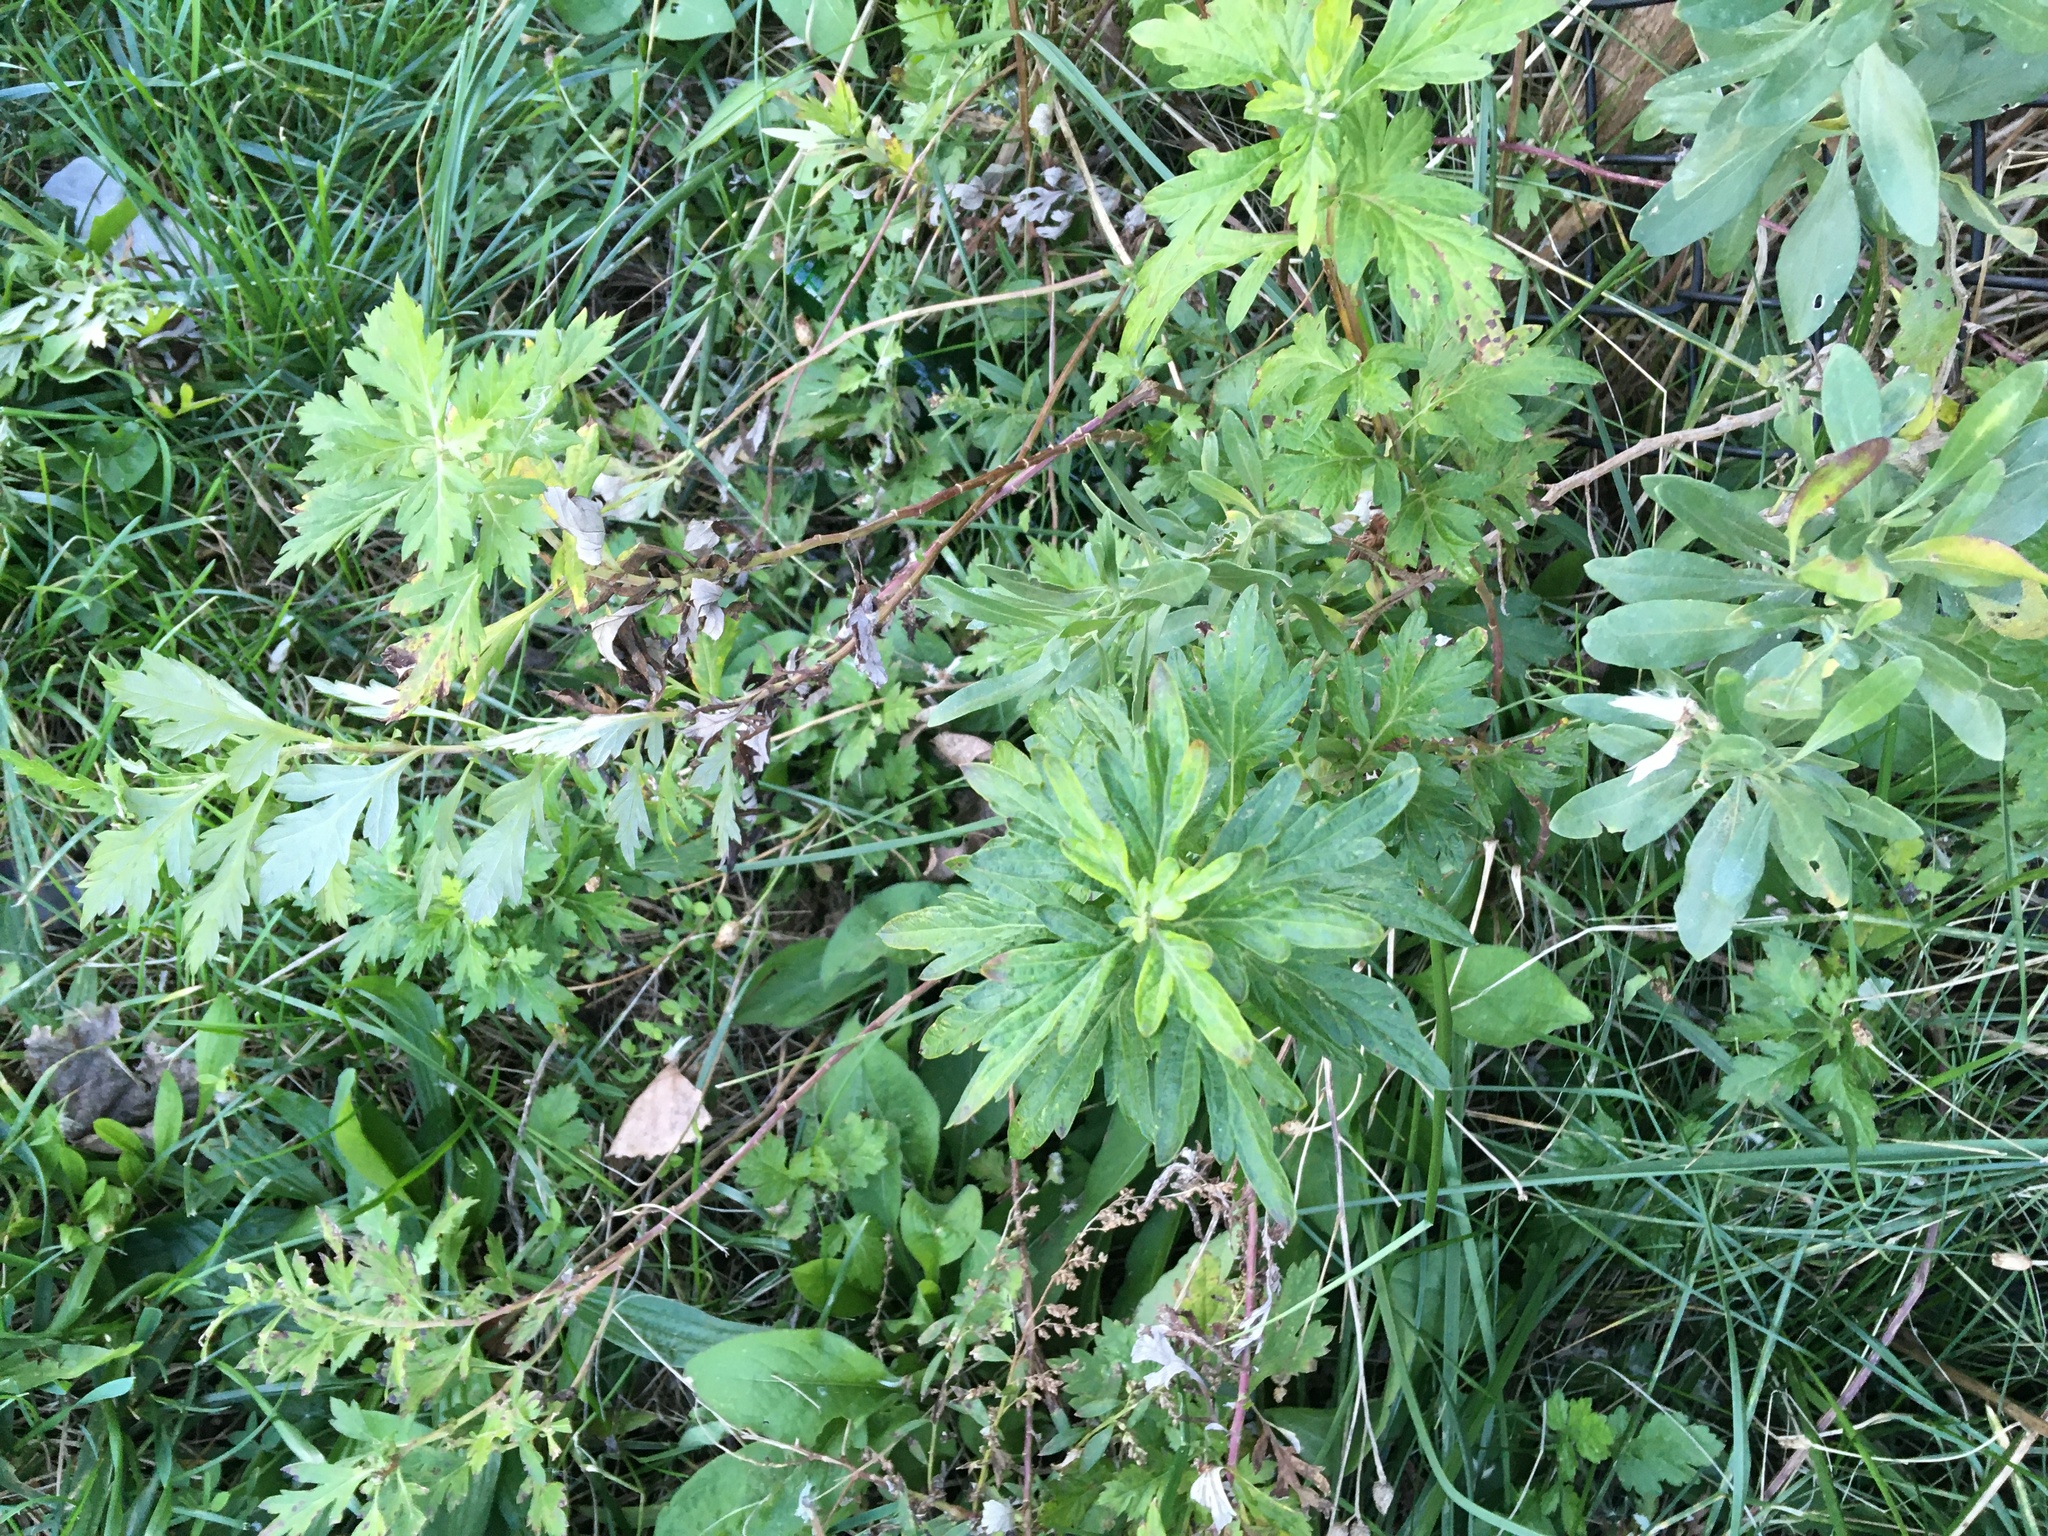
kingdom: Plantae
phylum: Tracheophyta
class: Magnoliopsida
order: Asterales
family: Asteraceae
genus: Artemisia
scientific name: Artemisia vulgaris
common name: Mugwort
